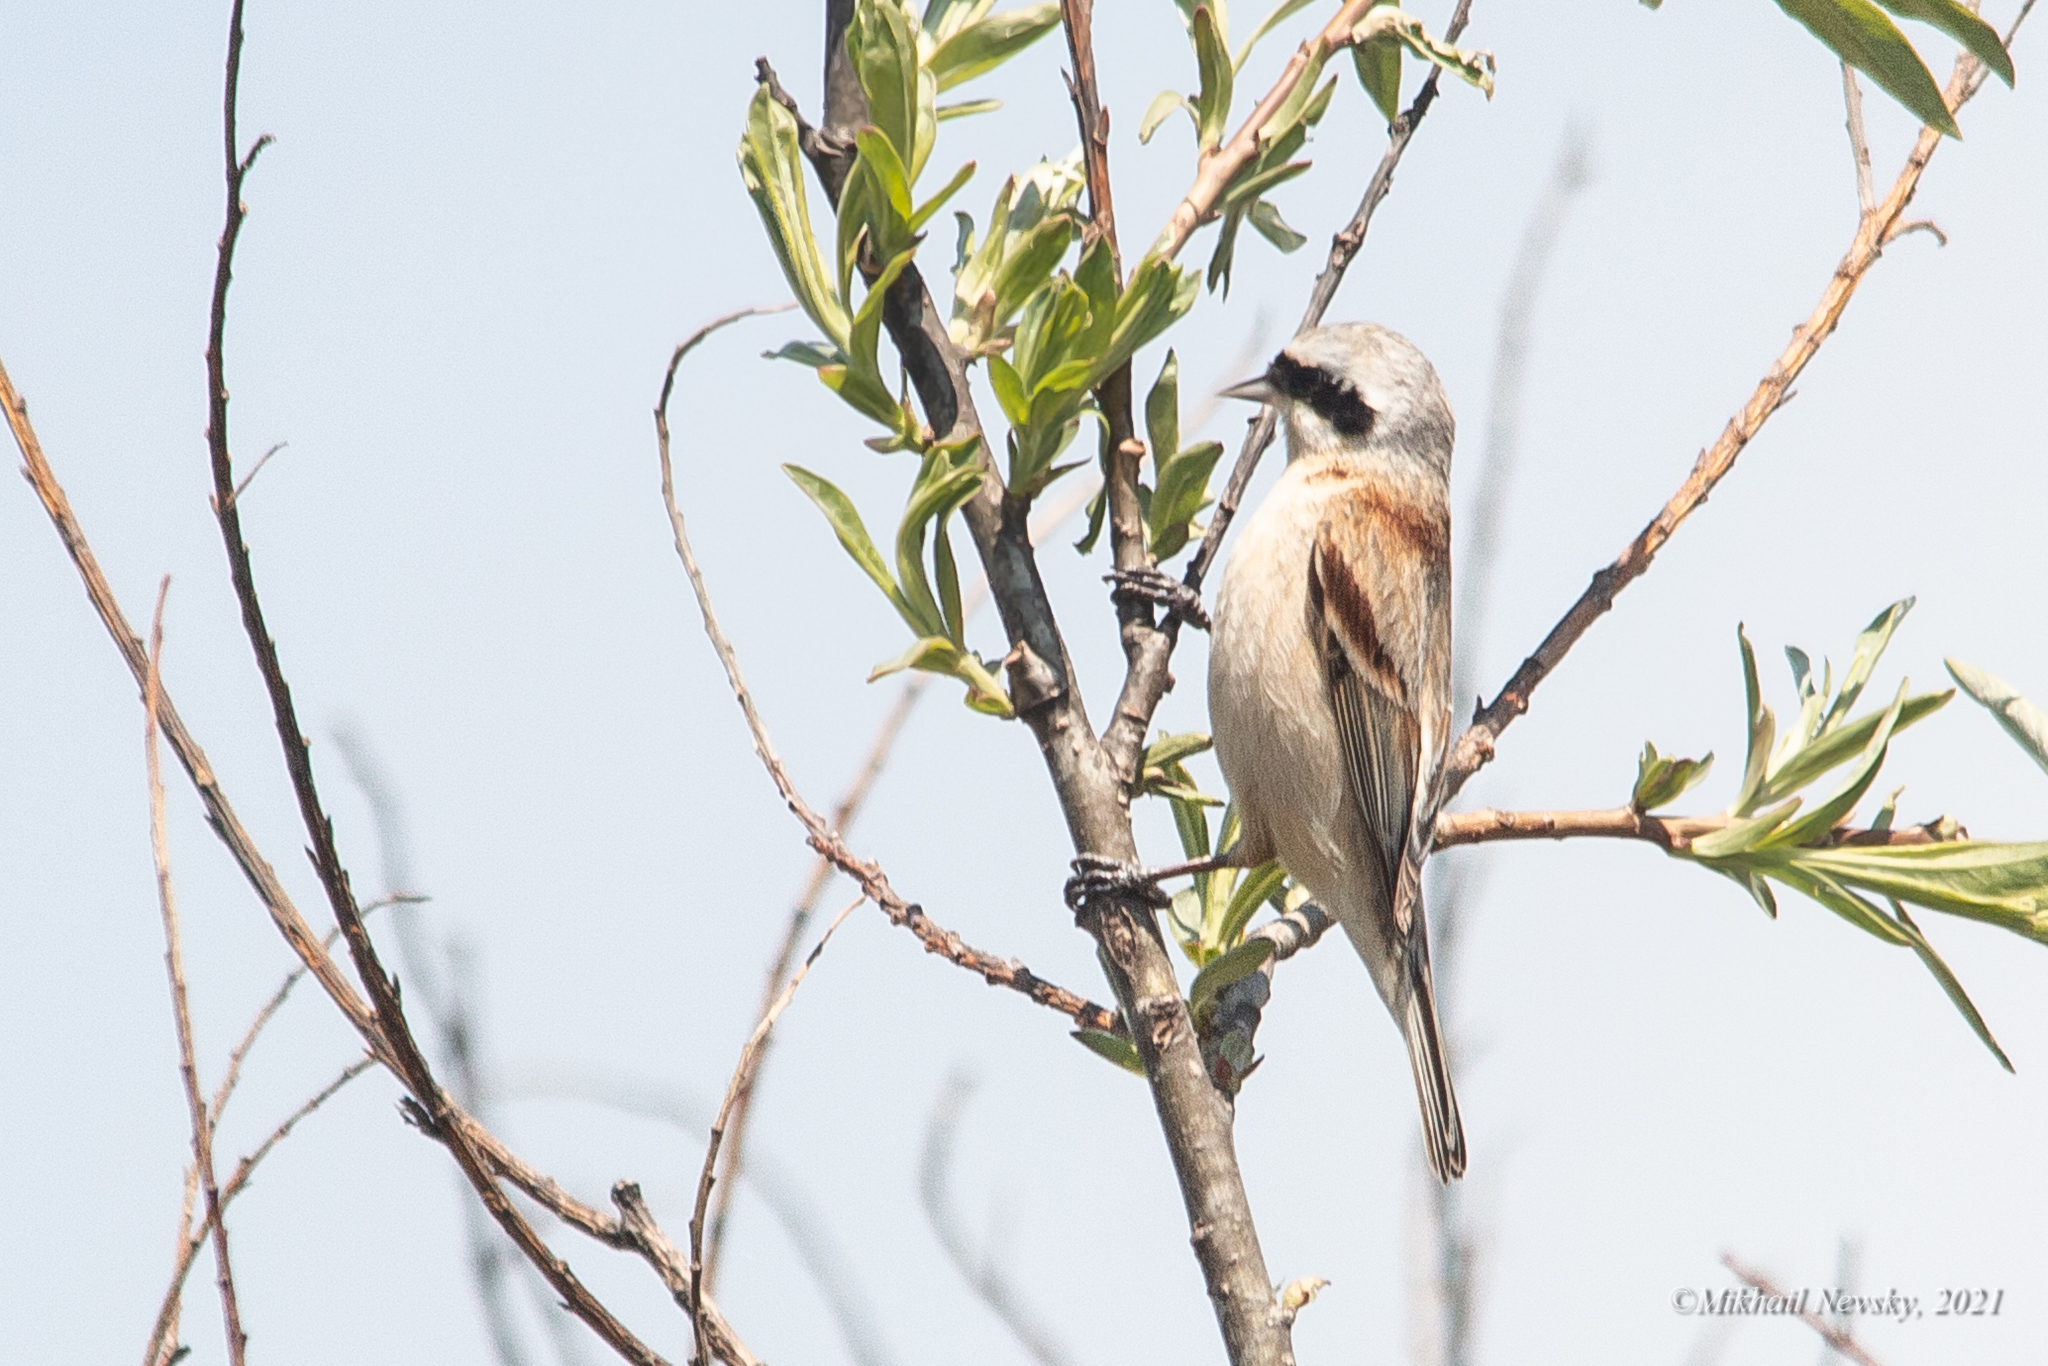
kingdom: Animalia
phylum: Chordata
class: Aves
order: Passeriformes
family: Remizidae
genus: Remiz
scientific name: Remiz consobrinus
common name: Chinese penduline tit
